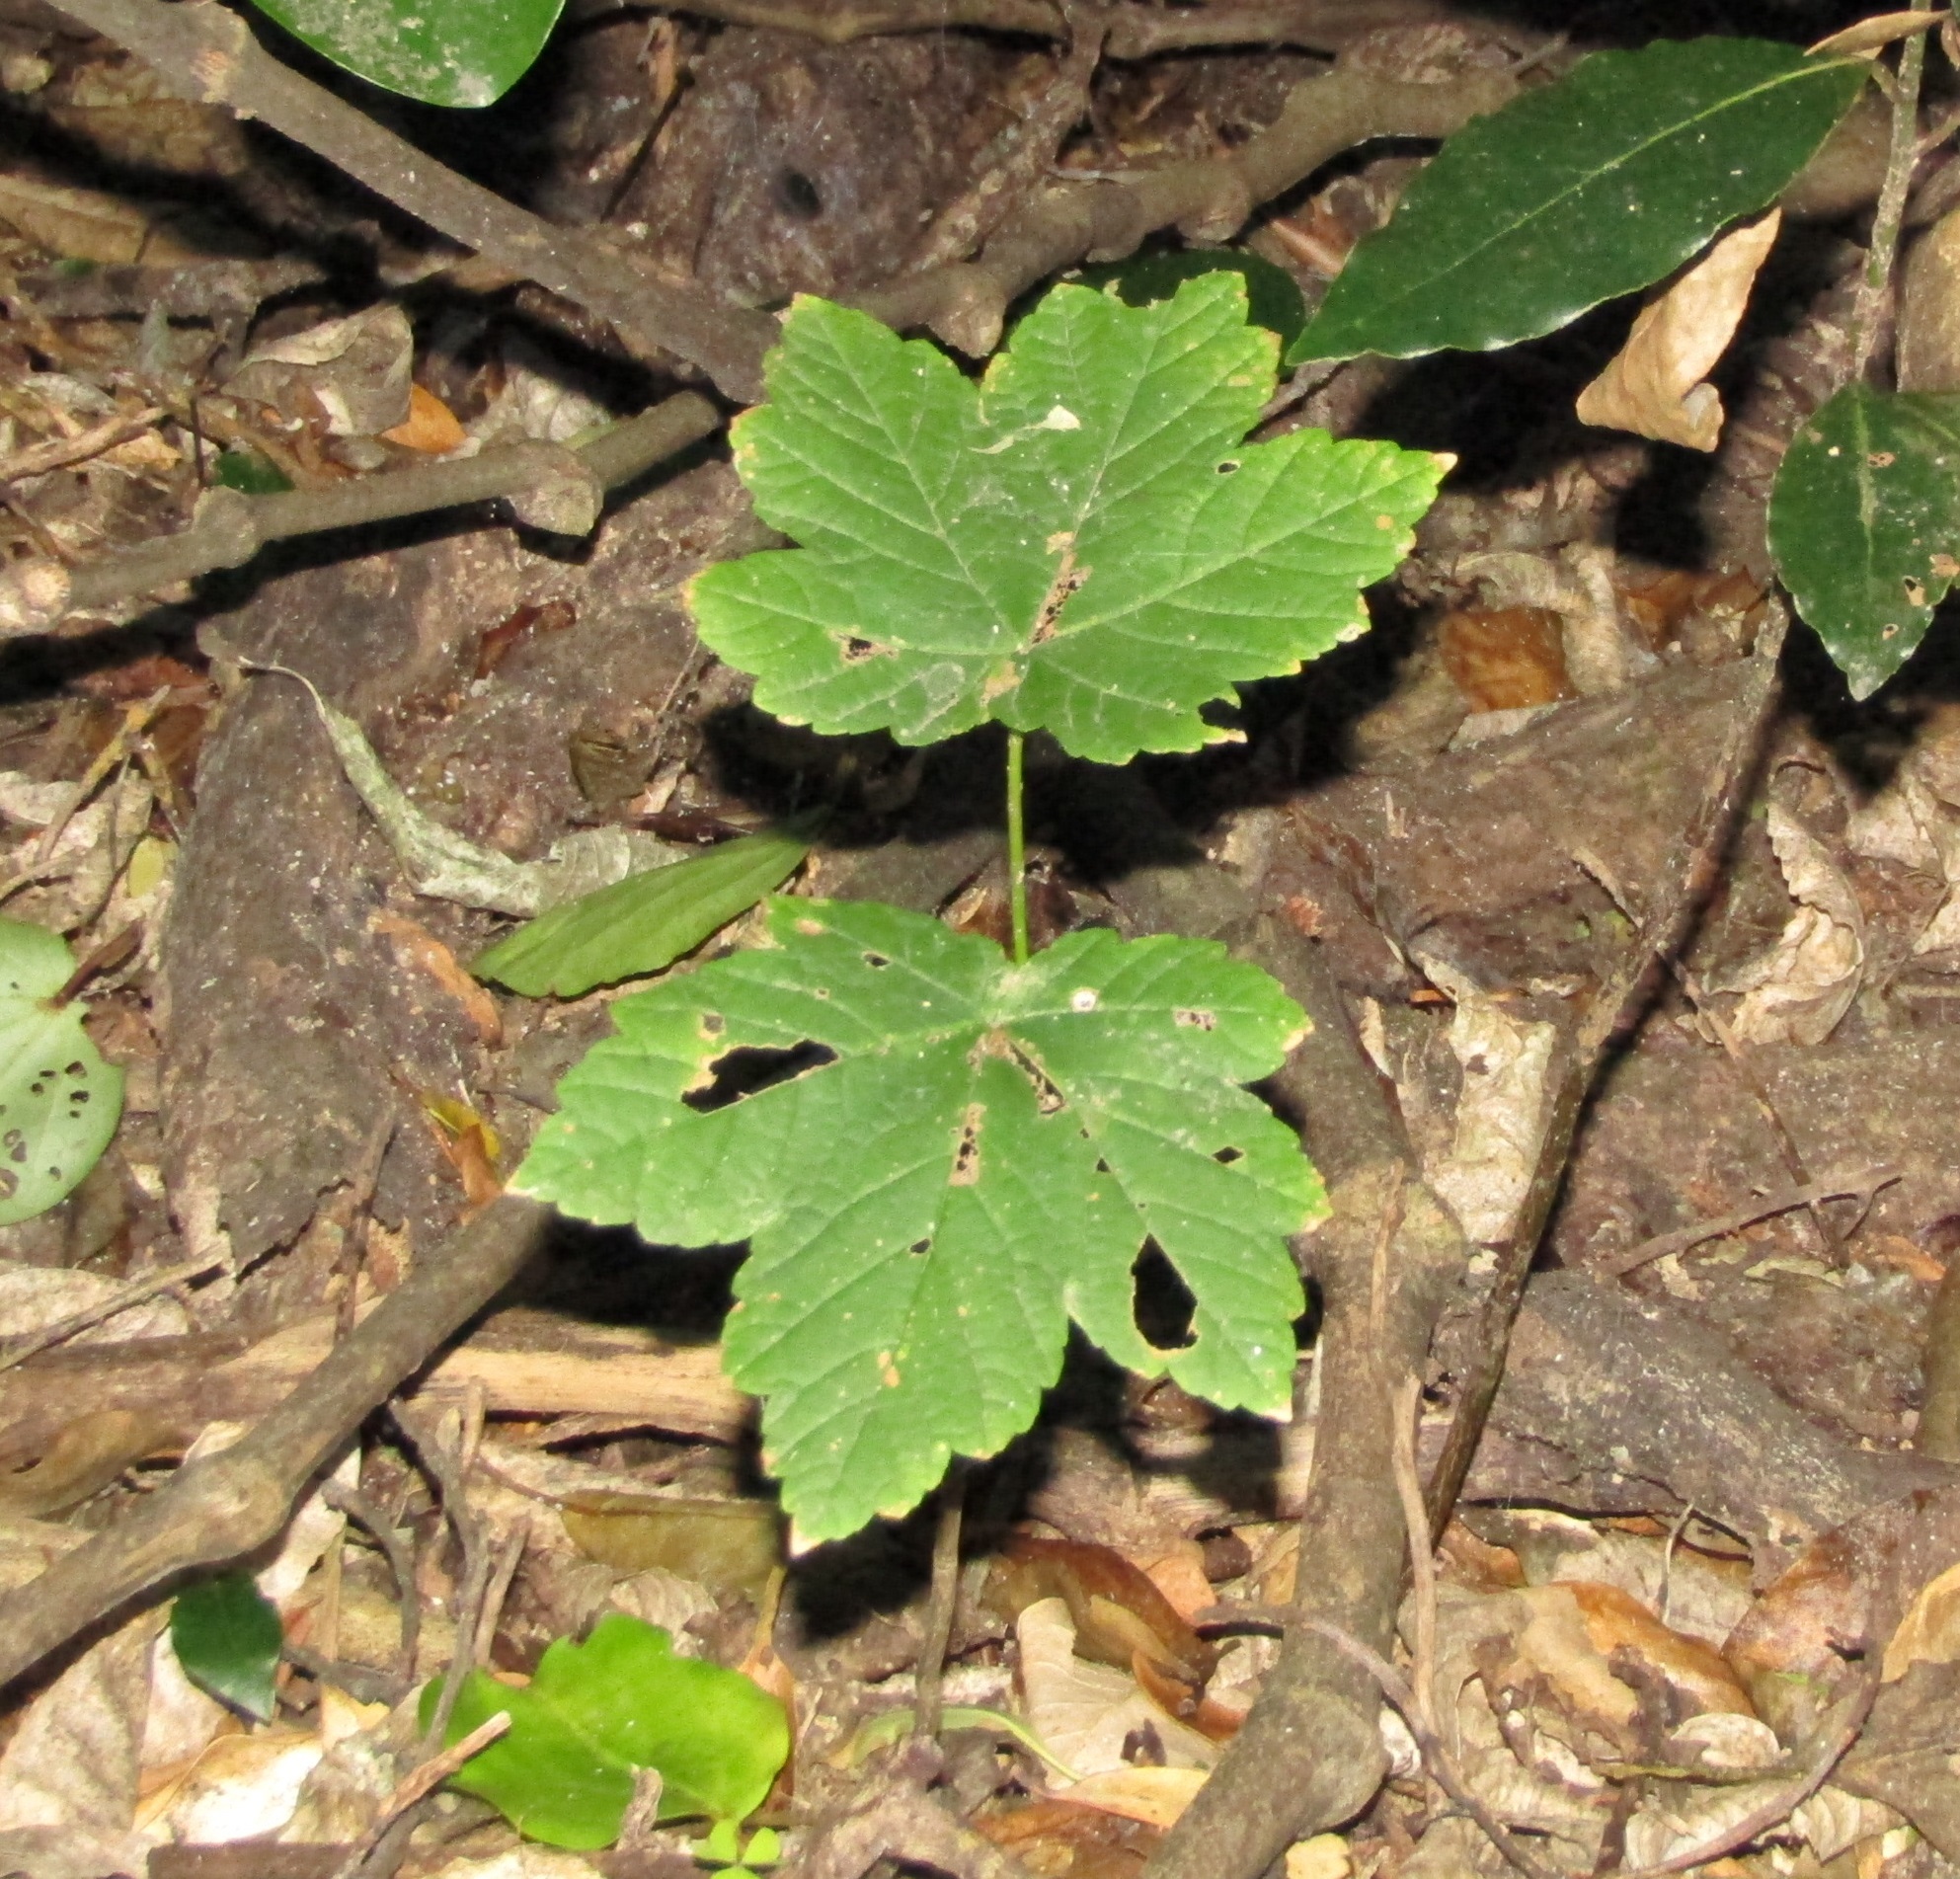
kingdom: Plantae
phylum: Tracheophyta
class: Magnoliopsida
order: Sapindales
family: Sapindaceae
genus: Acer
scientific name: Acer pseudoplatanus
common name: Sycamore
